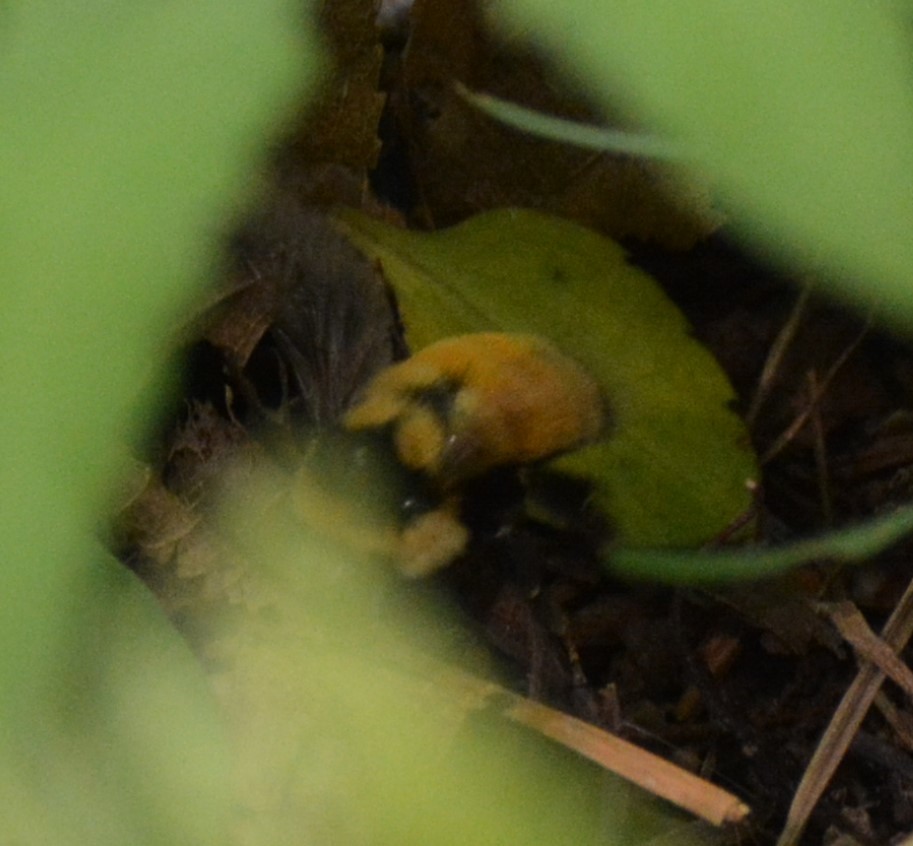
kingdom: Animalia
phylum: Arthropoda
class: Insecta
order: Hymenoptera
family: Apidae
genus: Bombus
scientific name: Bombus ternarius
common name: Tri-colored bumble bee
